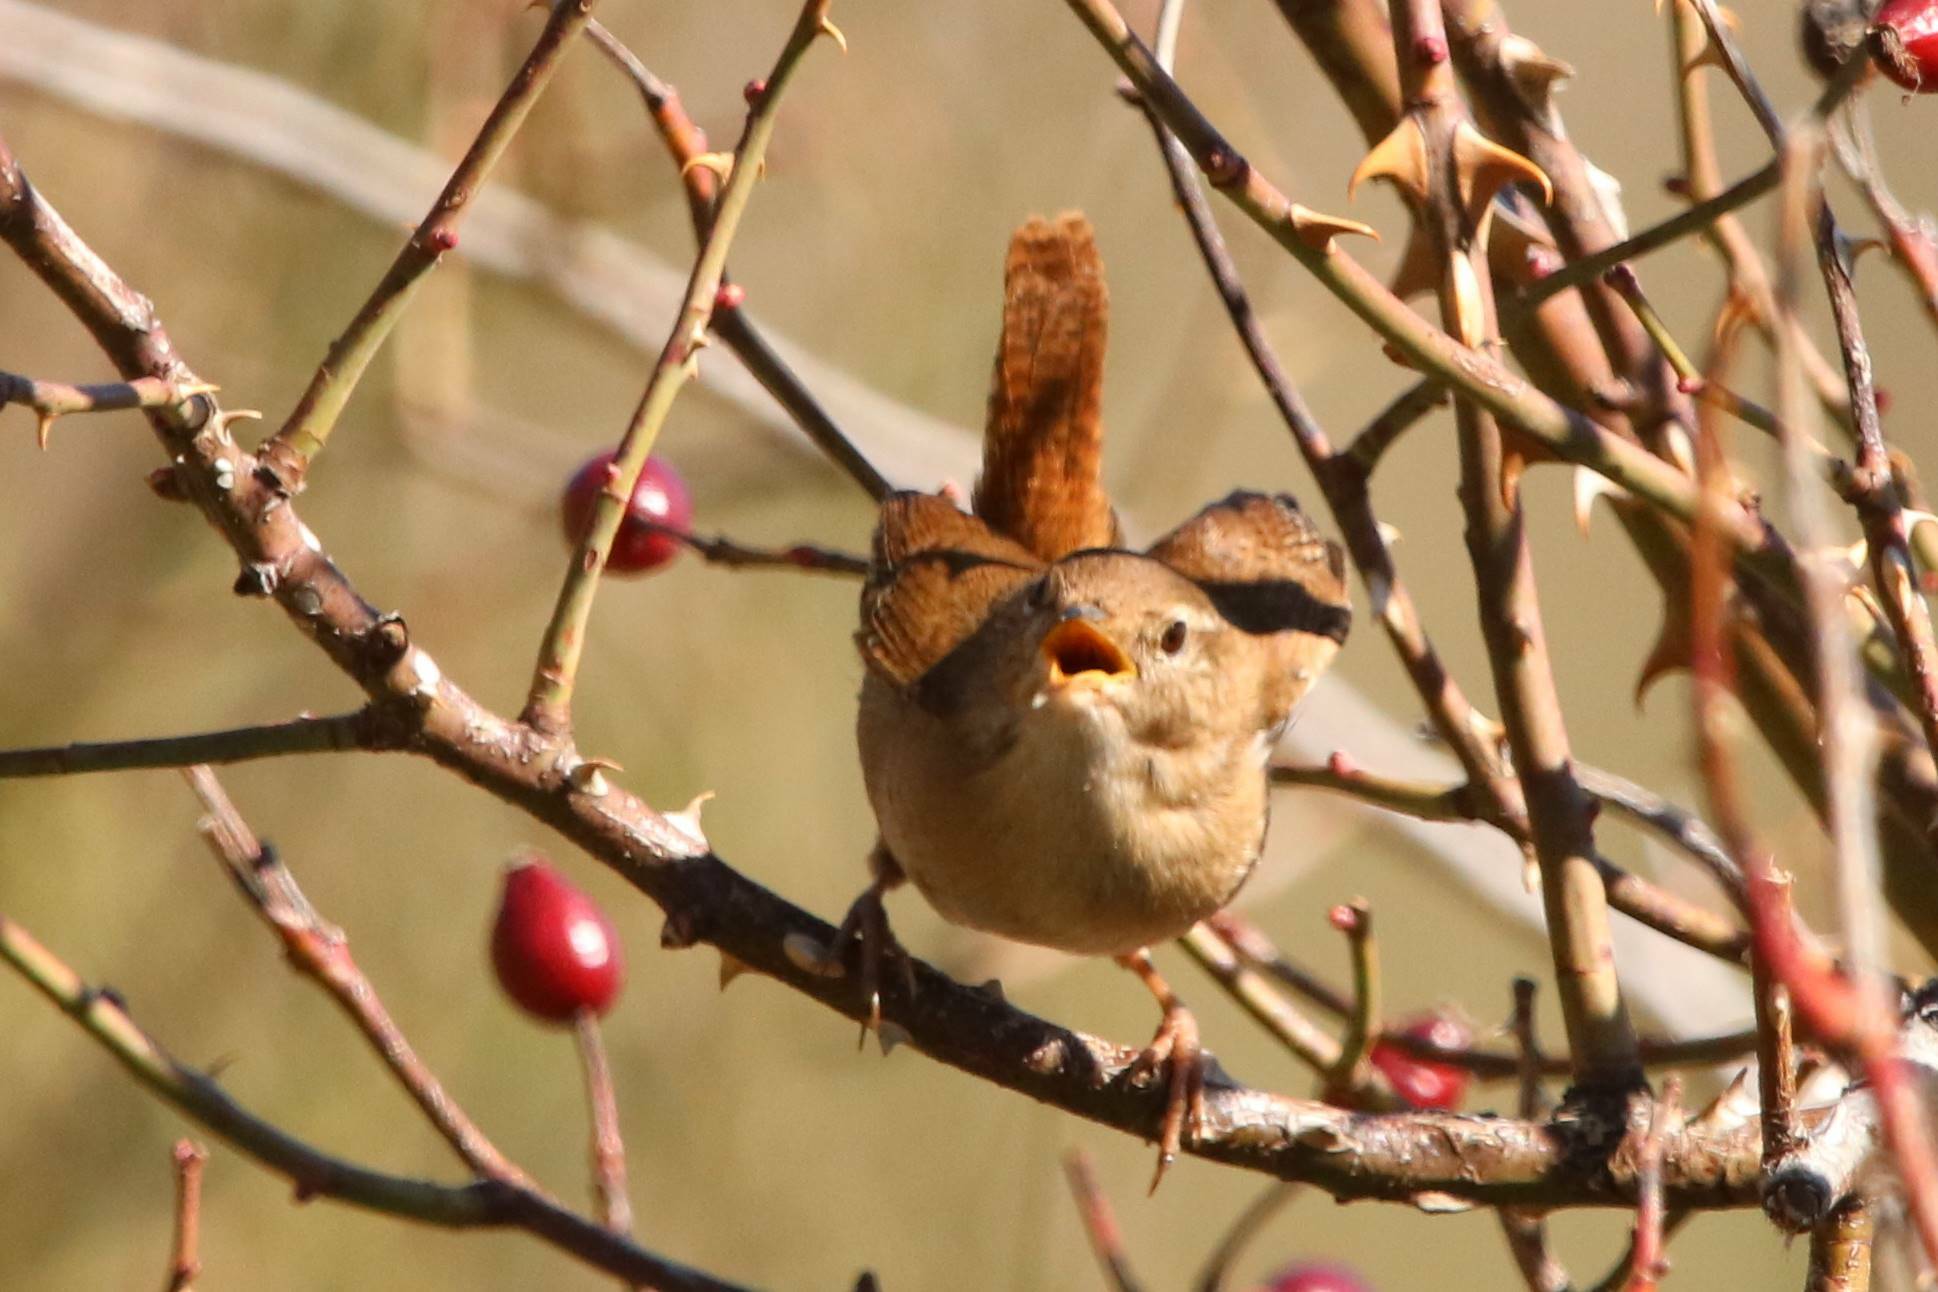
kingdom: Animalia
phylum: Chordata
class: Aves
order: Passeriformes
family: Troglodytidae
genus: Troglodytes
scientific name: Troglodytes troglodytes
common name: Eurasian wren
